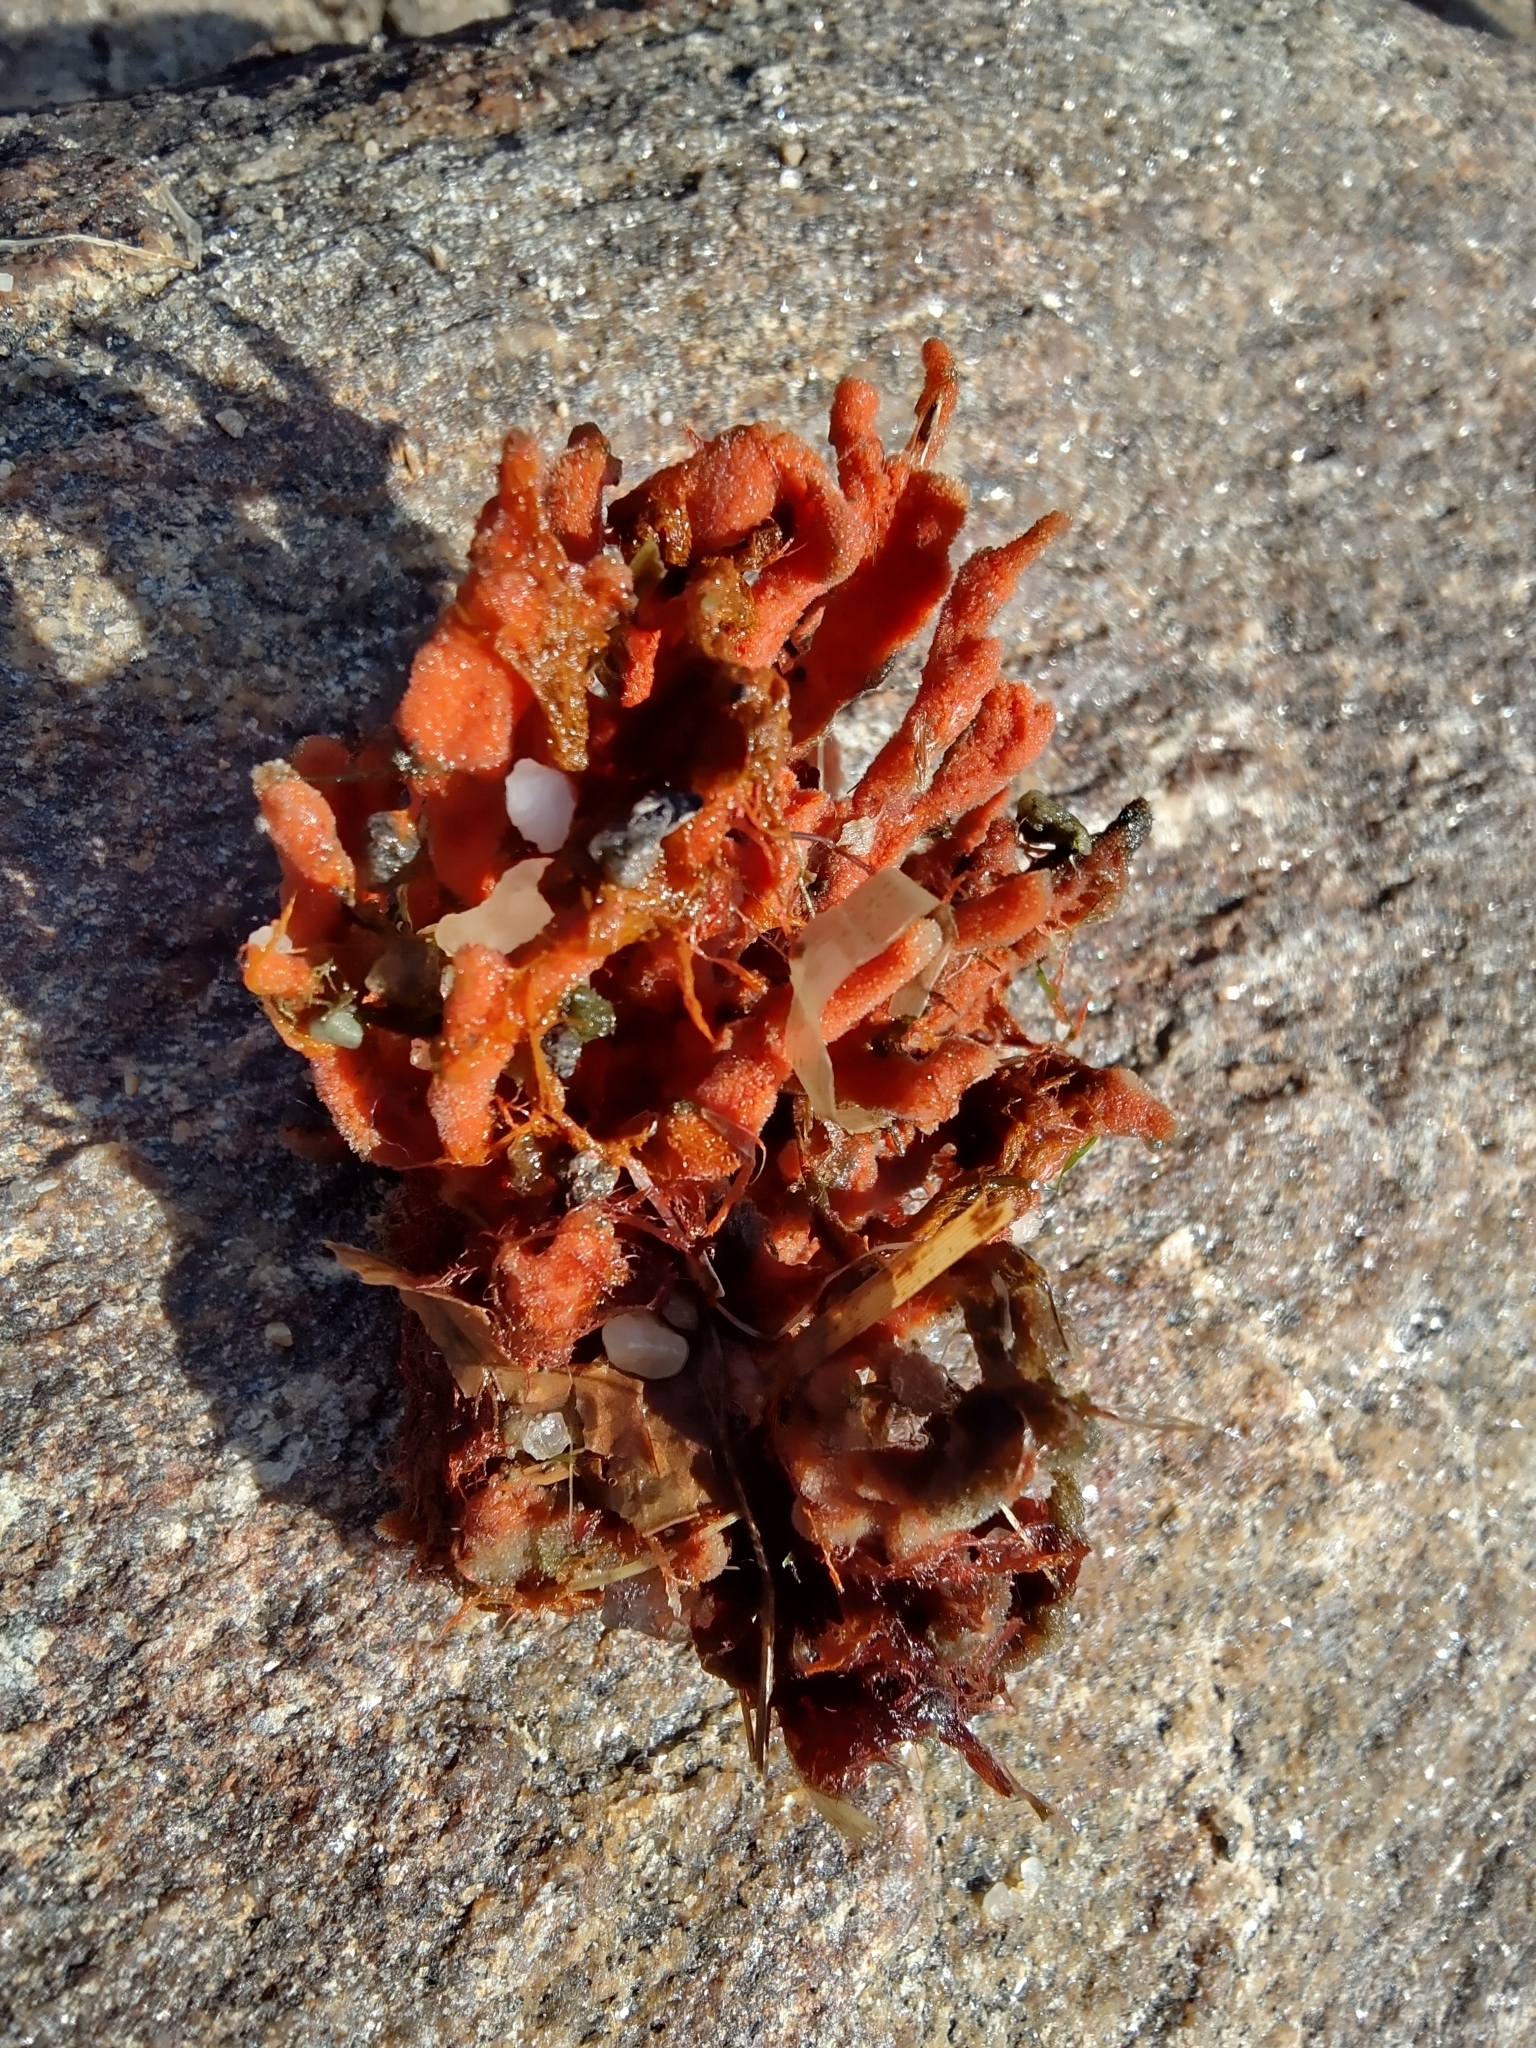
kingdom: Animalia
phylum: Porifera
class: Demospongiae
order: Poecilosclerida
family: Microcionidae
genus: Clathria
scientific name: Clathria prolifera
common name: Red beard sponge
